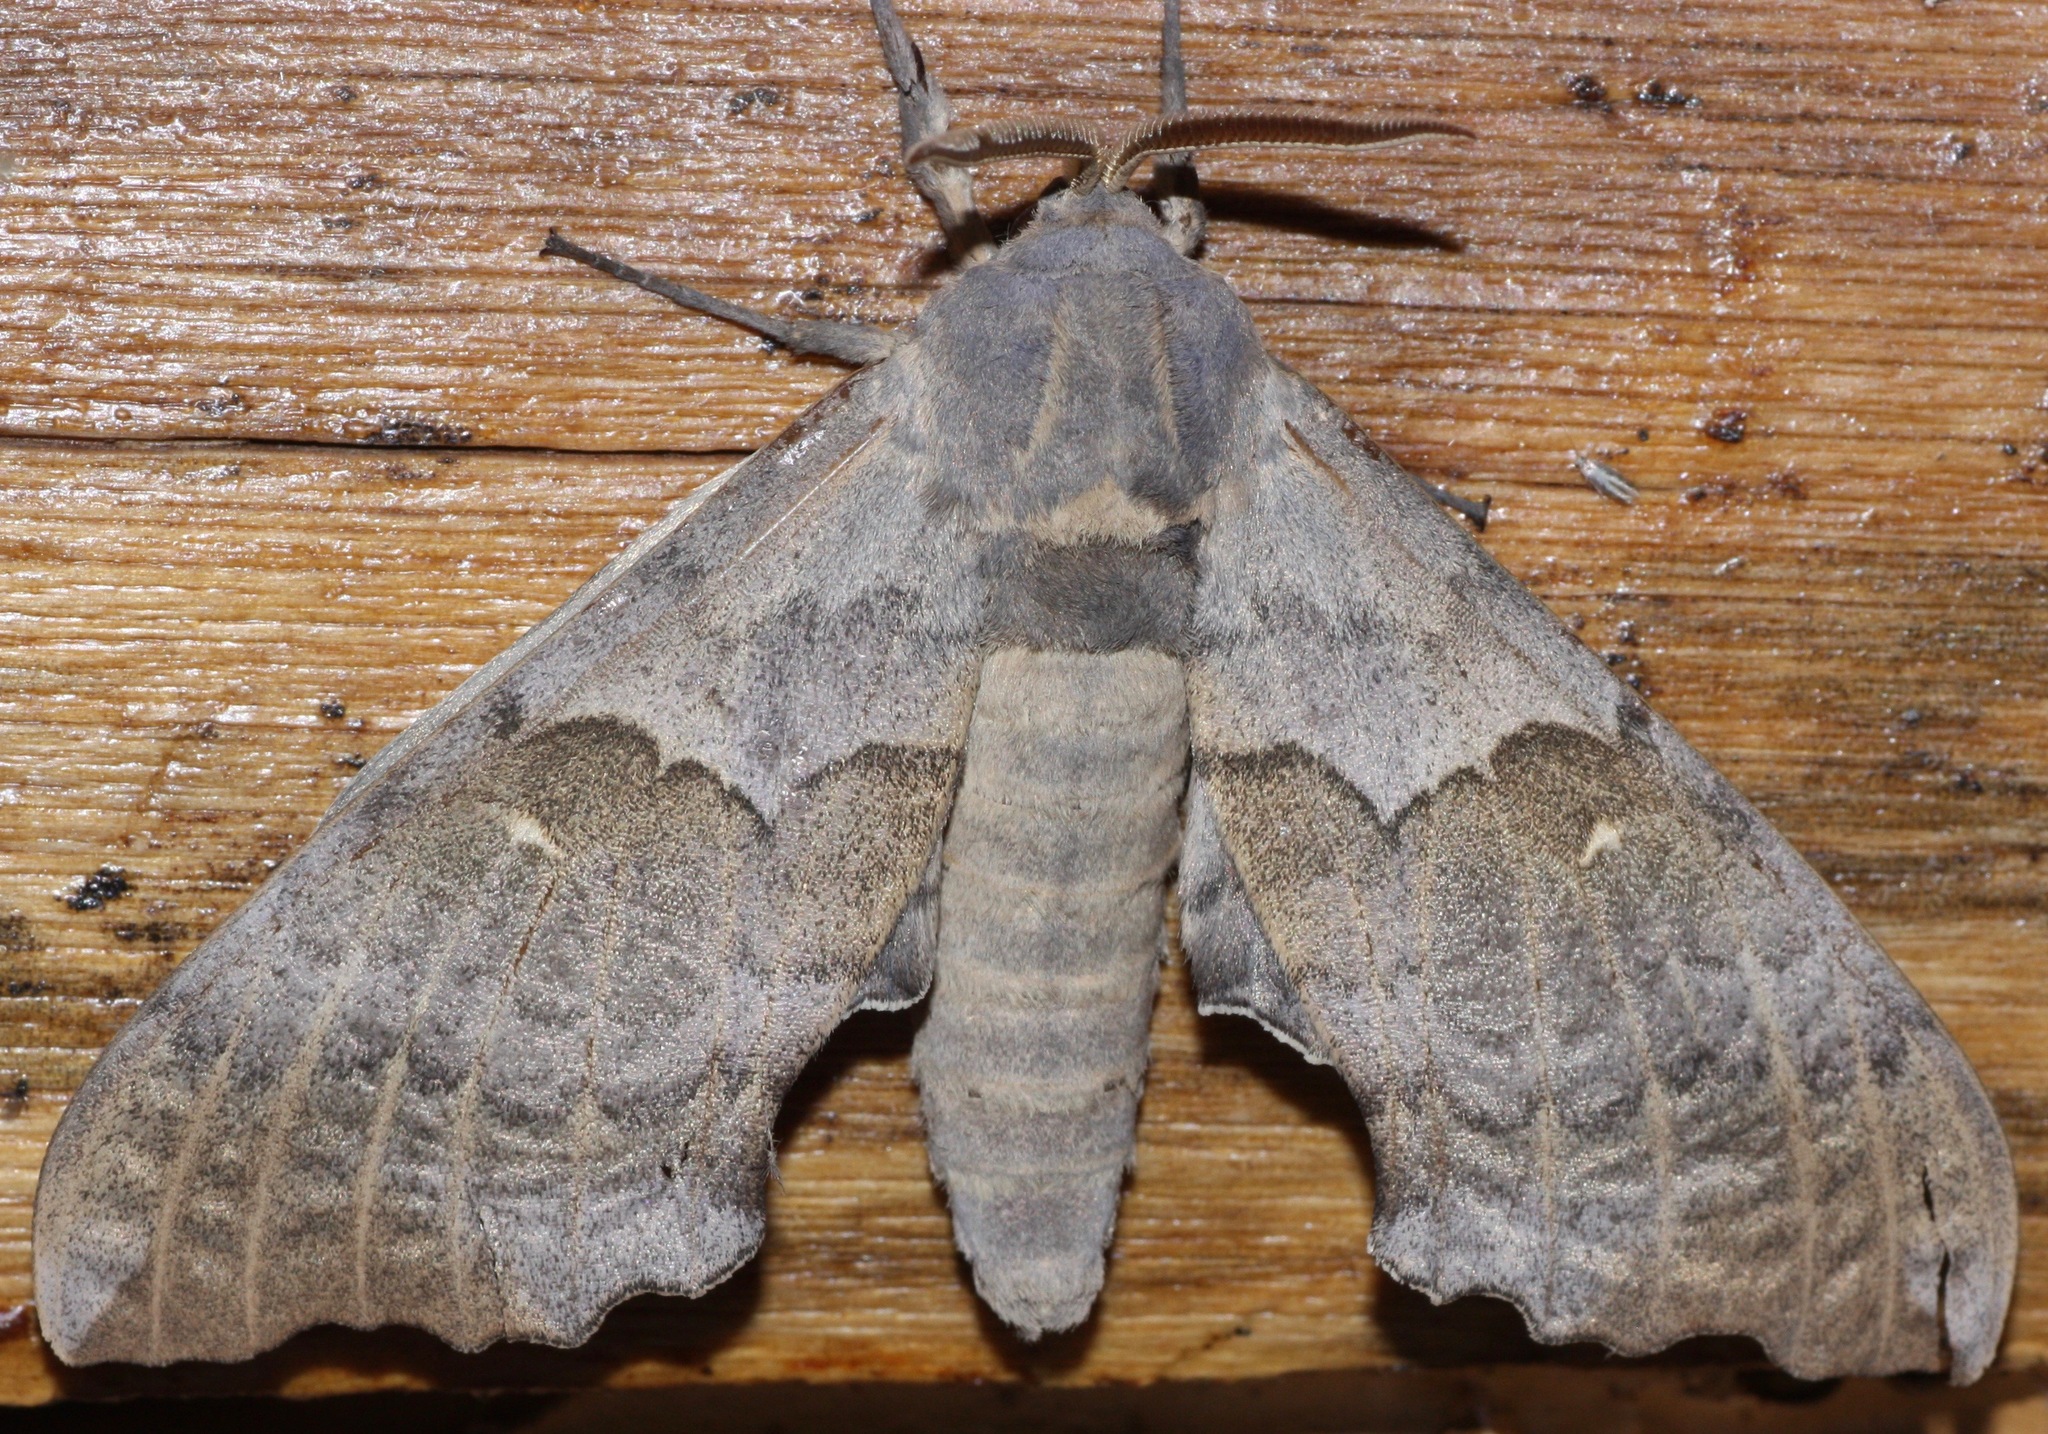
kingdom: Animalia
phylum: Arthropoda
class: Insecta
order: Lepidoptera
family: Sphingidae
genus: Pachysphinx
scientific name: Pachysphinx occidentalis
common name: Western poplar sphinx
